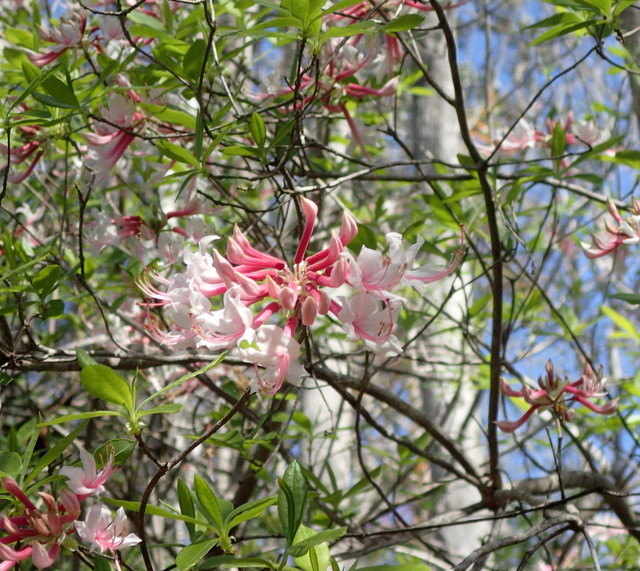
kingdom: Plantae
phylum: Tracheophyta
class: Magnoliopsida
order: Ericales
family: Ericaceae
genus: Rhododendron
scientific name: Rhododendron canescens
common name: Mountain azalea
